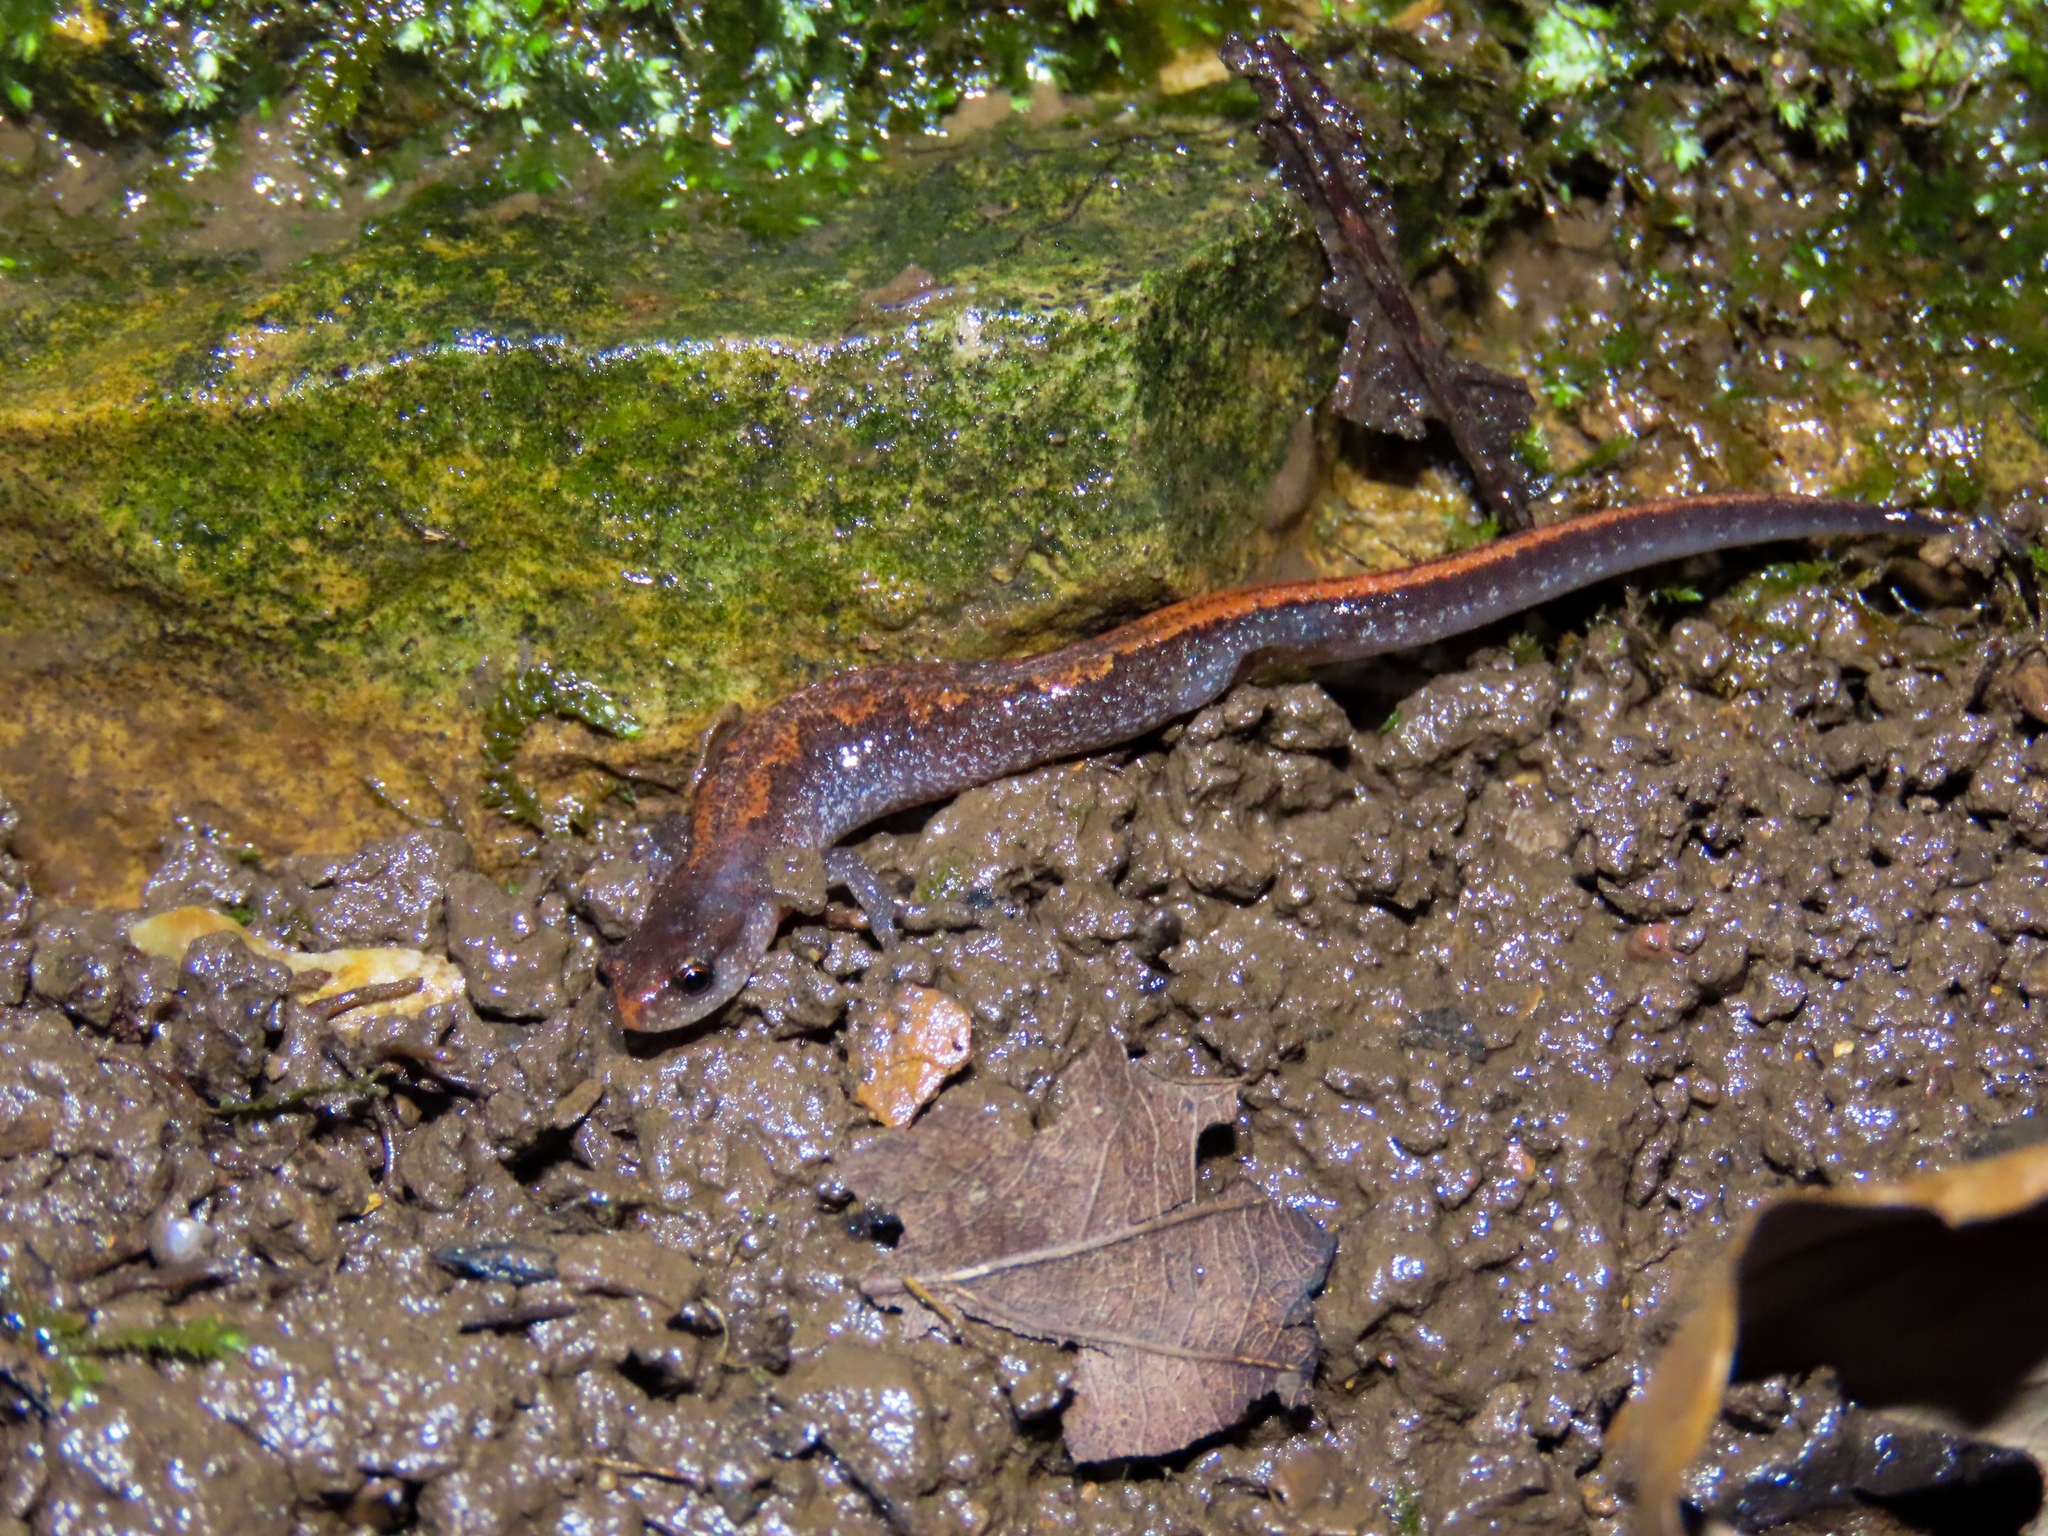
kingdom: Animalia
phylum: Chordata
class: Amphibia
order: Caudata
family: Plethodontidae
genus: Plethodon
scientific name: Plethodon dorsalis
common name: Northern zigzag salamander
